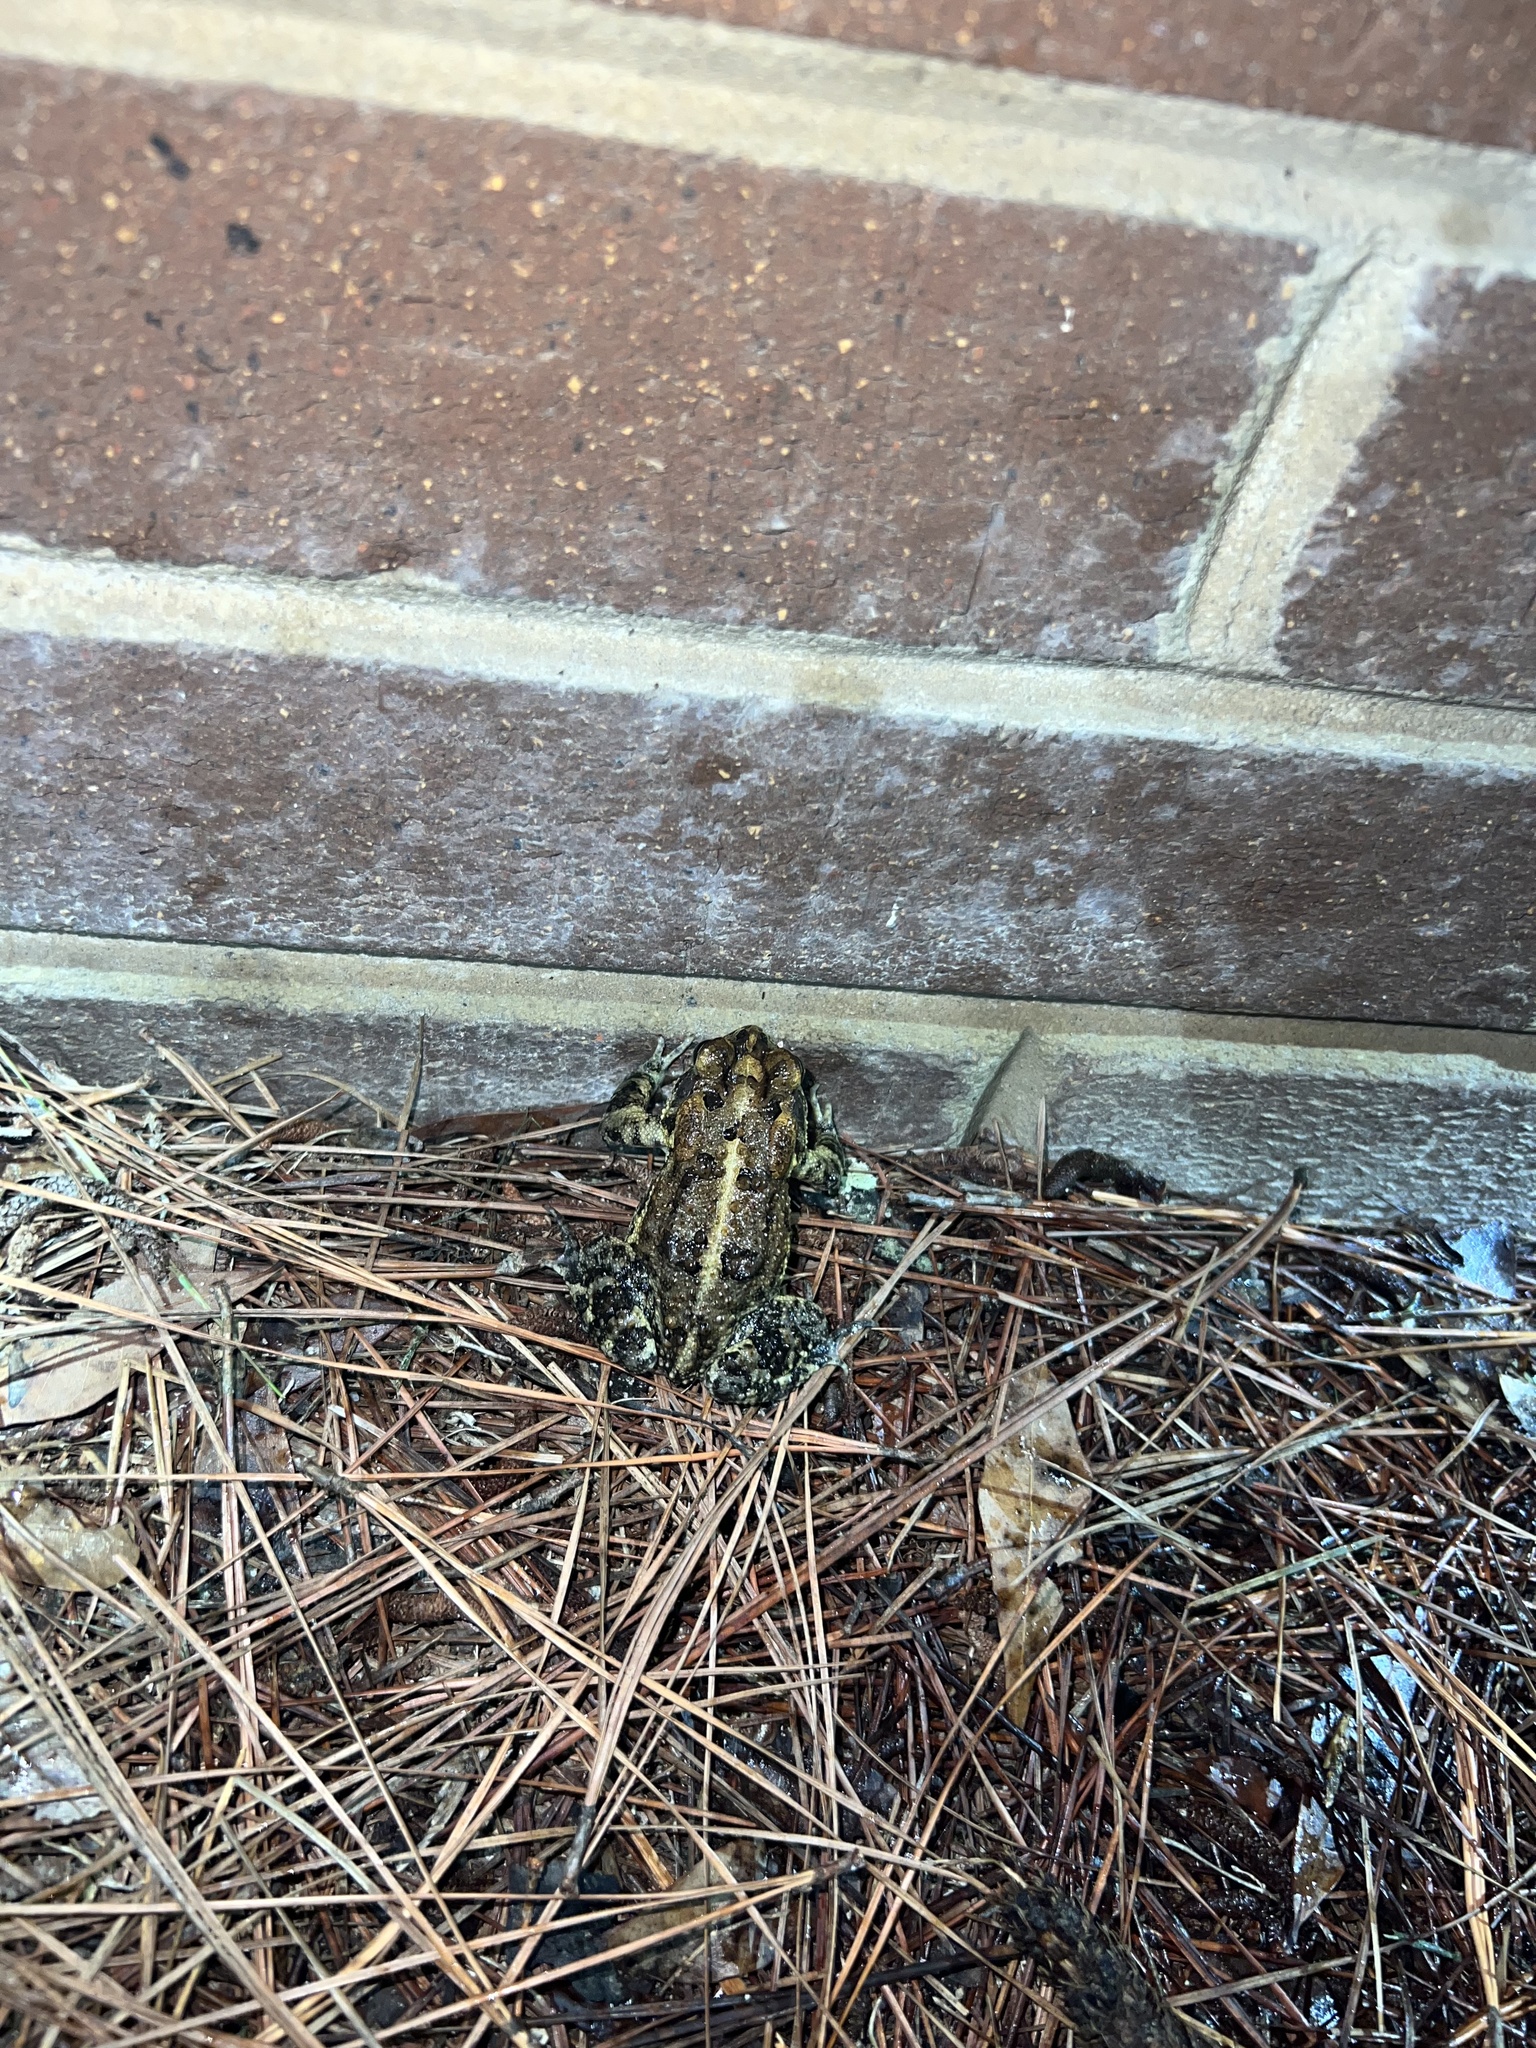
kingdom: Animalia
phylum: Chordata
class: Amphibia
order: Anura
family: Bufonidae
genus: Anaxyrus
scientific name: Anaxyrus terrestris
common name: Southern toad
